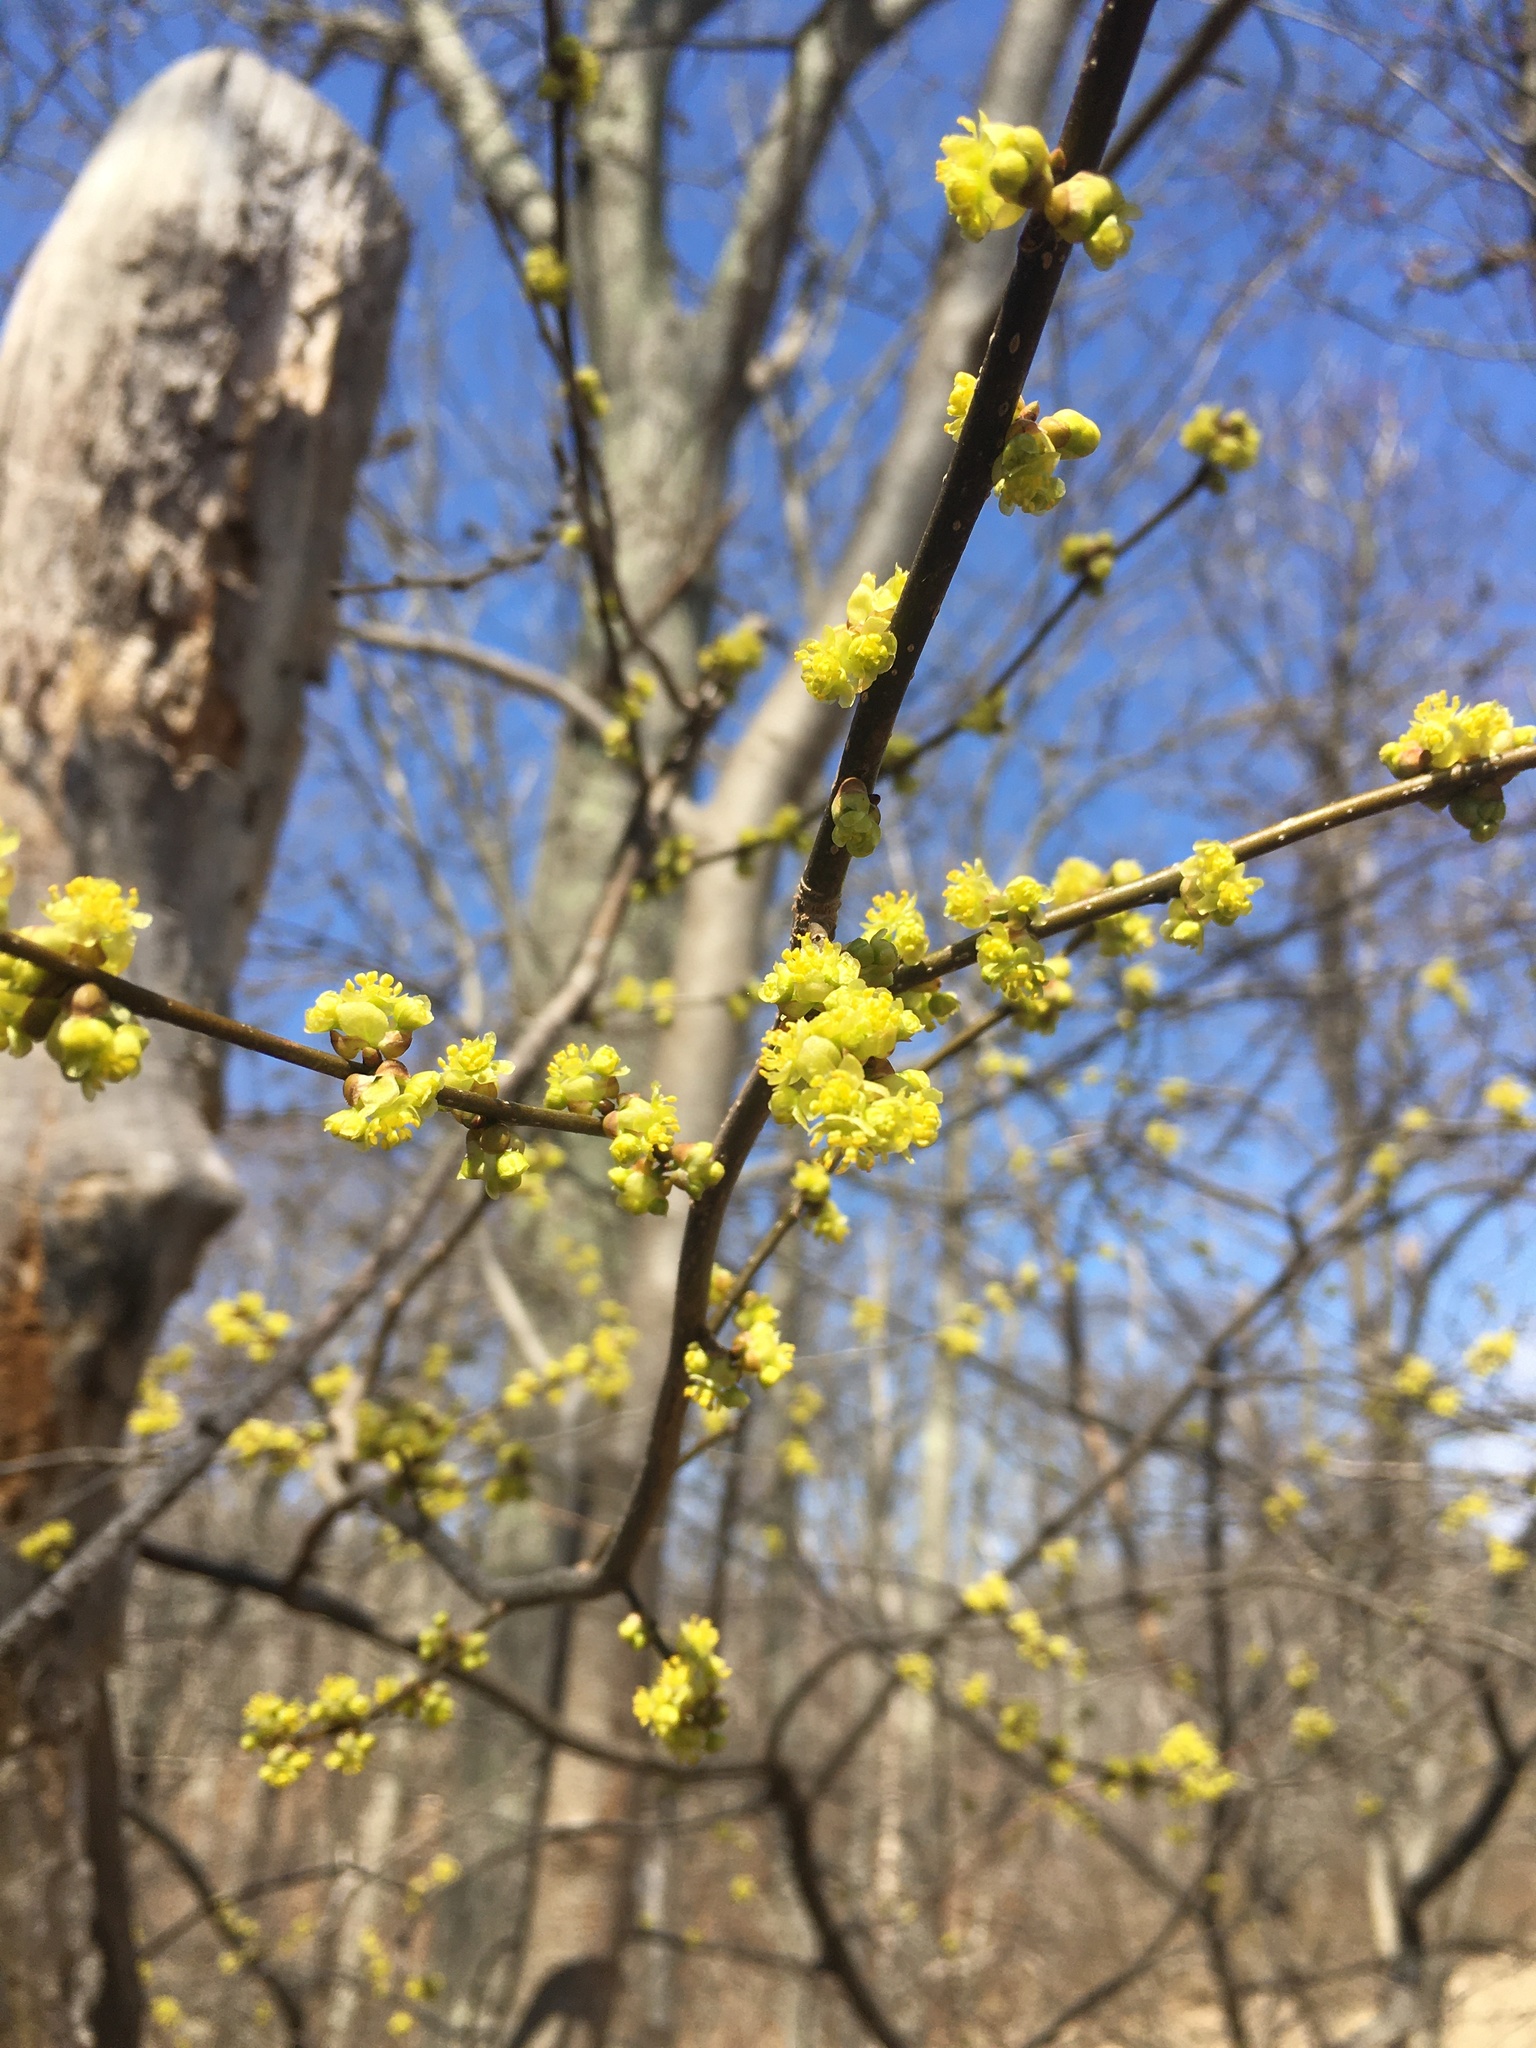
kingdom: Plantae
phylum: Tracheophyta
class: Magnoliopsida
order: Laurales
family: Lauraceae
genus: Lindera
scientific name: Lindera benzoin
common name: Spicebush
